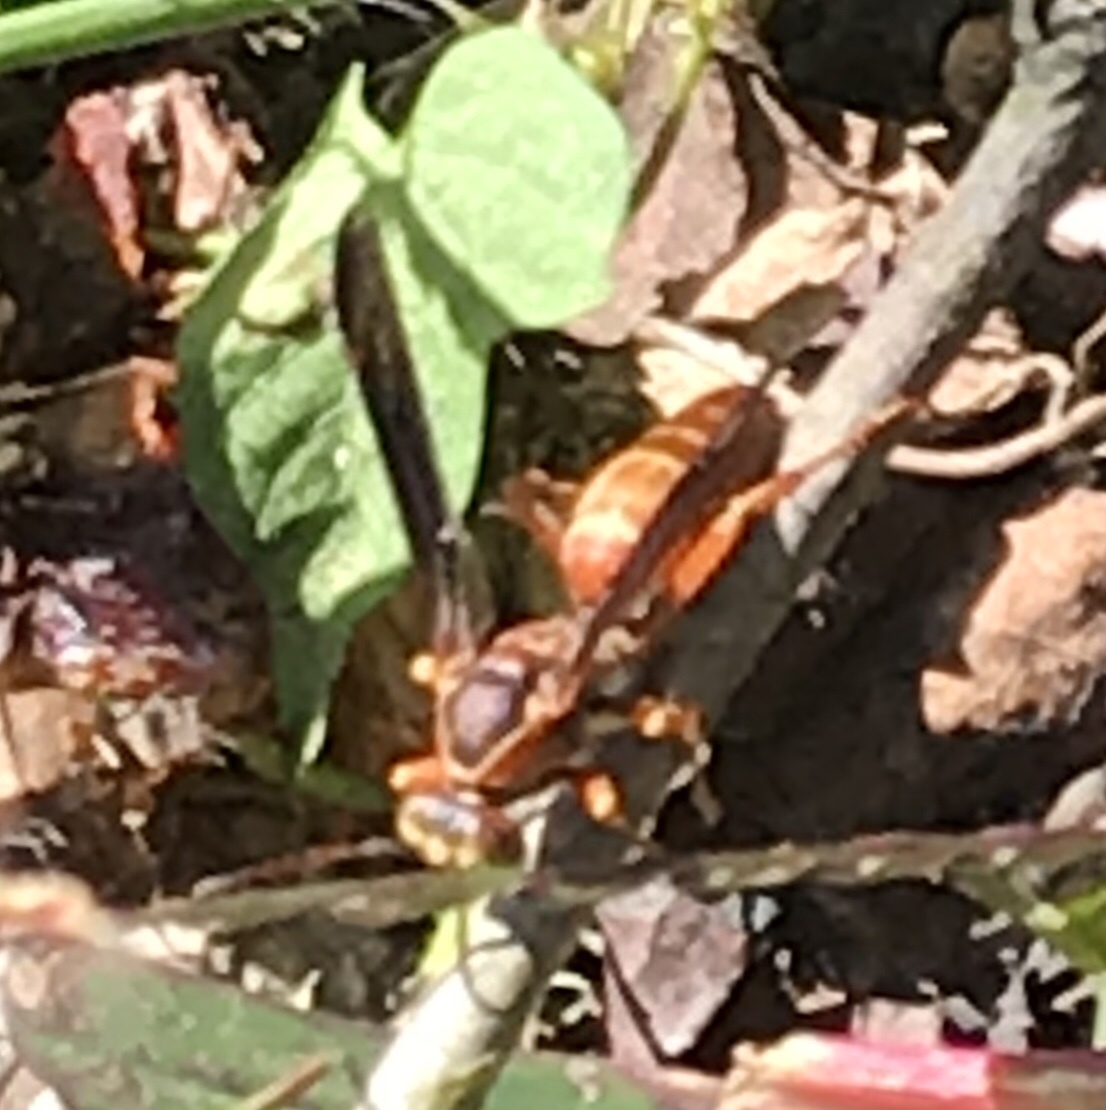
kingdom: Animalia
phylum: Arthropoda
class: Insecta
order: Hymenoptera
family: Eumenidae
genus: Polistes
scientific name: Polistes carolina
